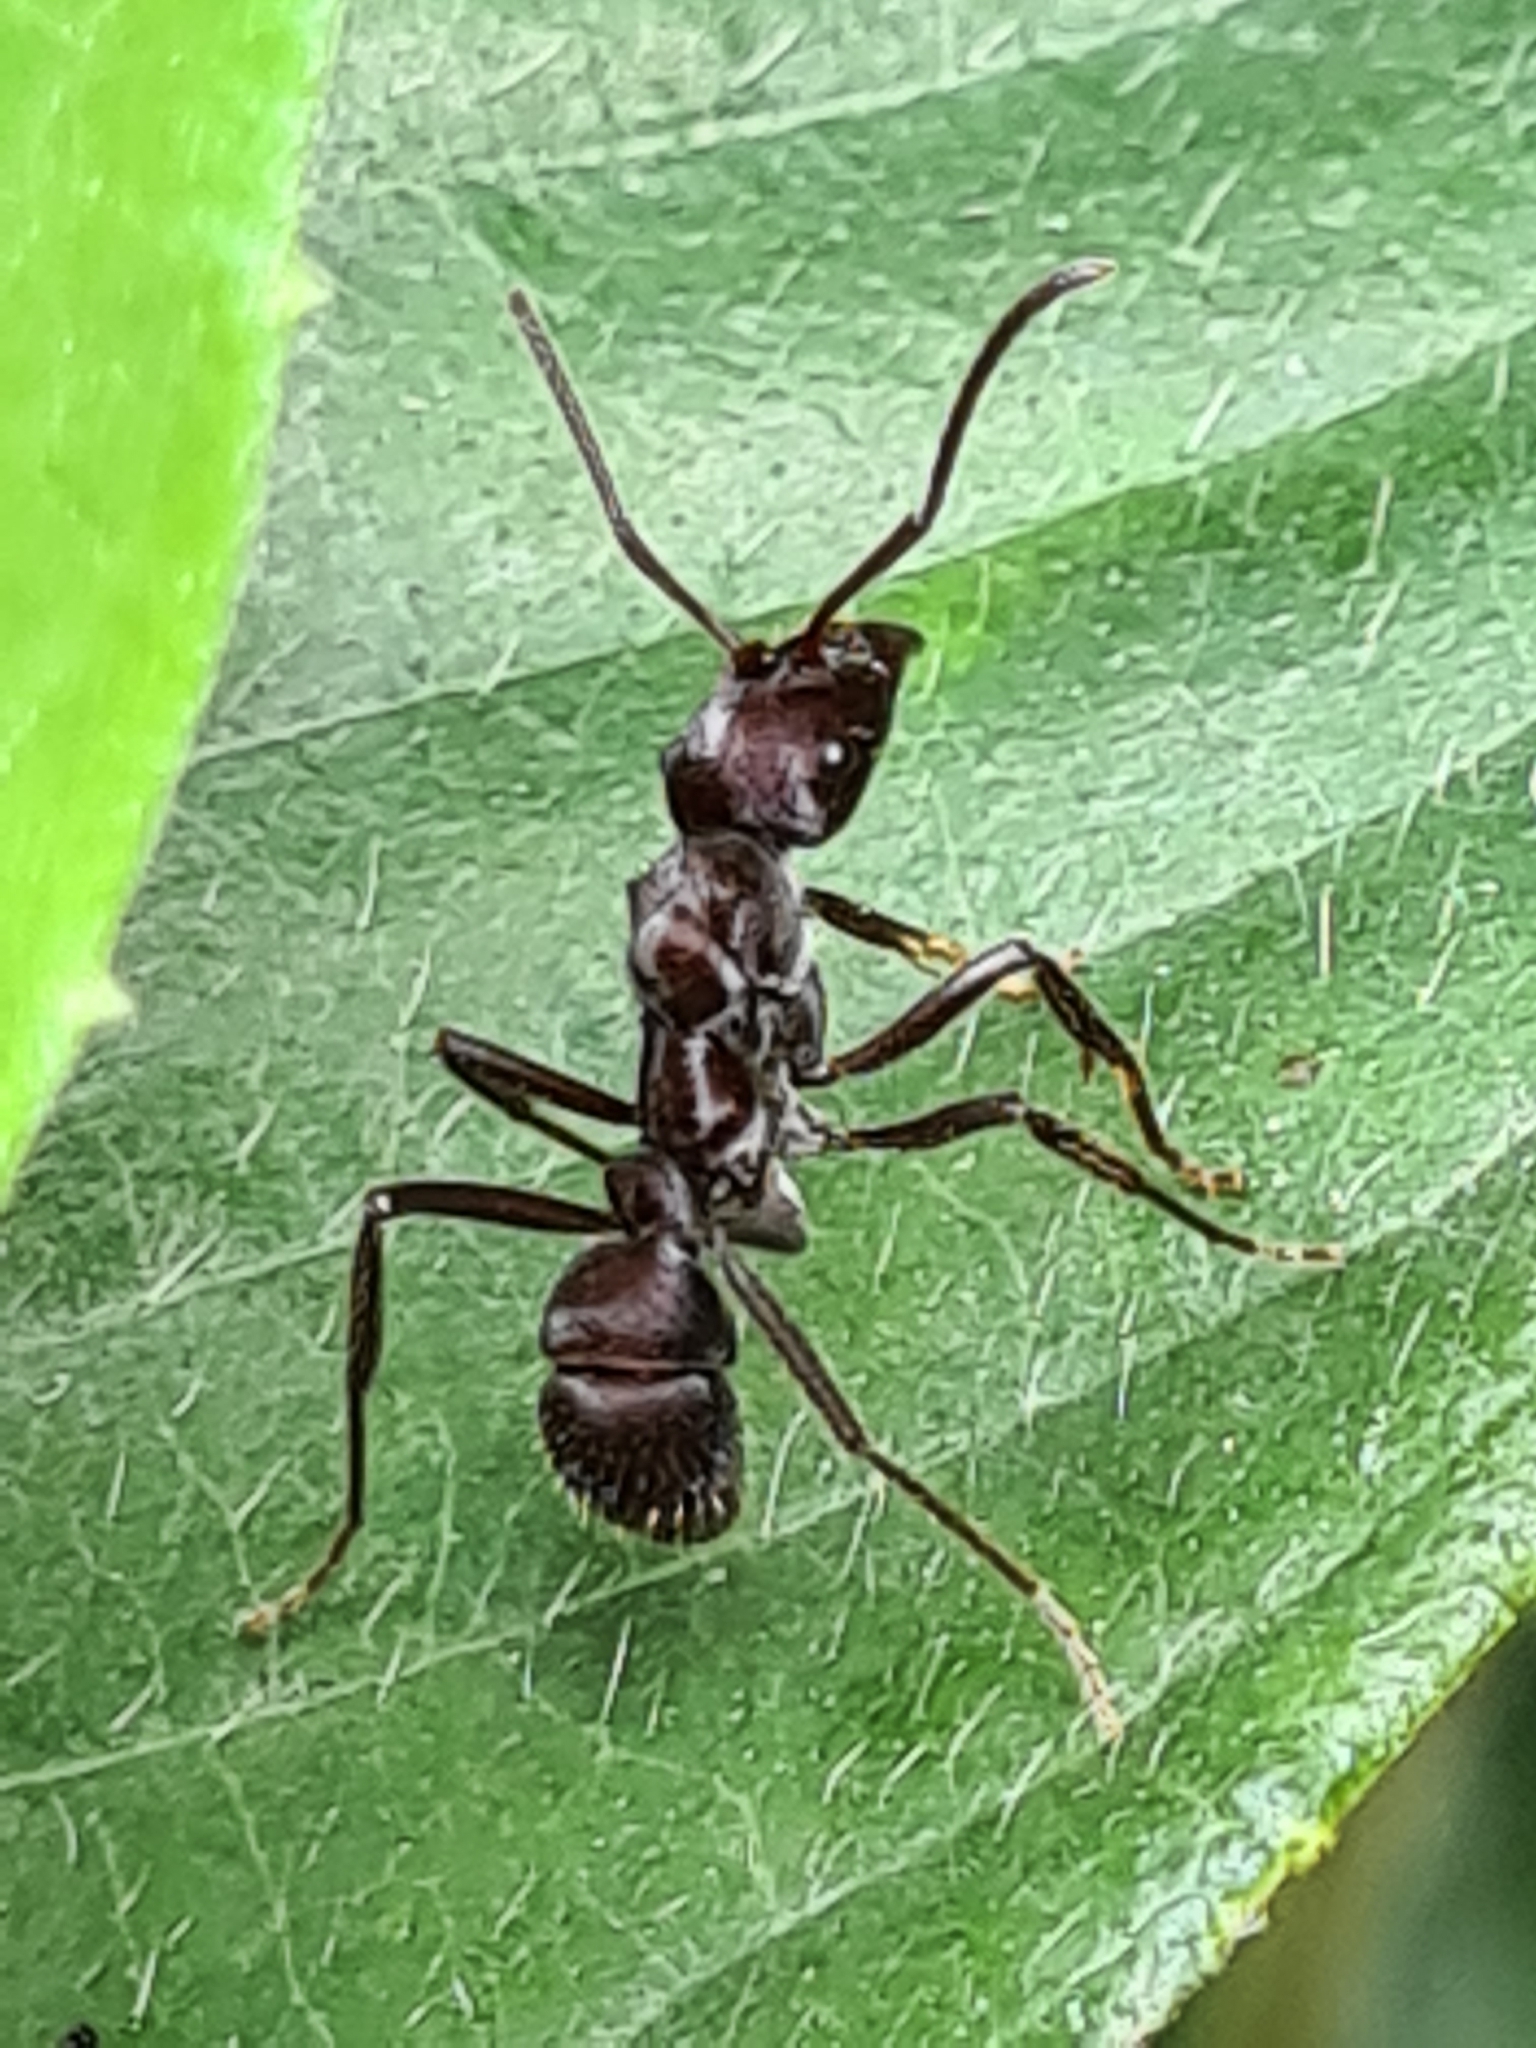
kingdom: Animalia
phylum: Arthropoda
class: Insecta
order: Hymenoptera
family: Formicidae
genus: Ectatomma
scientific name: Ectatomma brunneum
